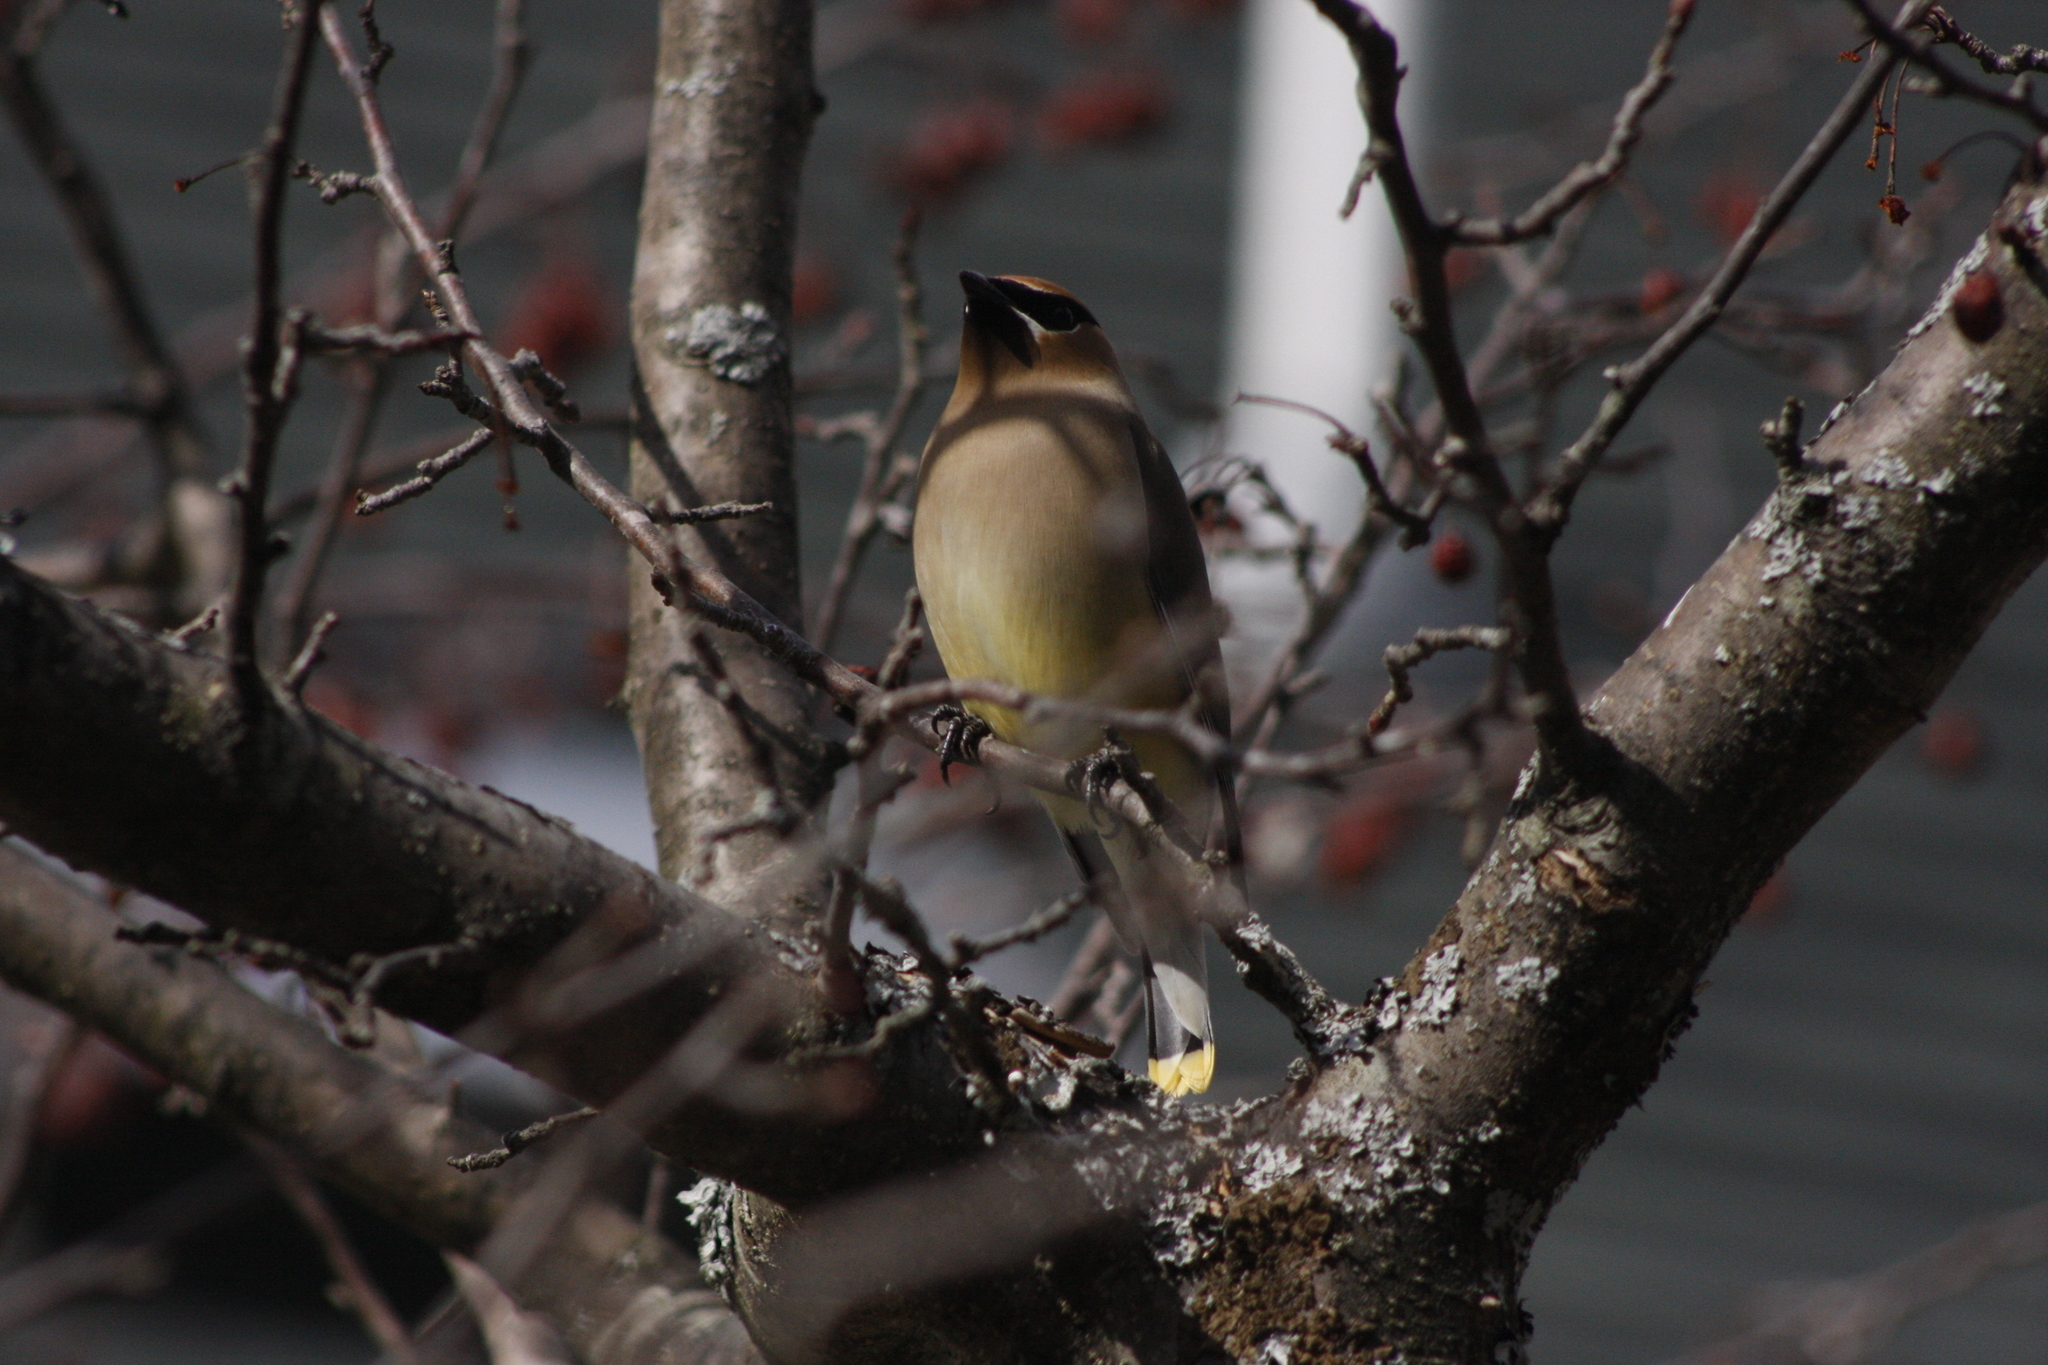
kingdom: Animalia
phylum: Chordata
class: Aves
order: Passeriformes
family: Bombycillidae
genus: Bombycilla
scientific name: Bombycilla cedrorum
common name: Cedar waxwing
